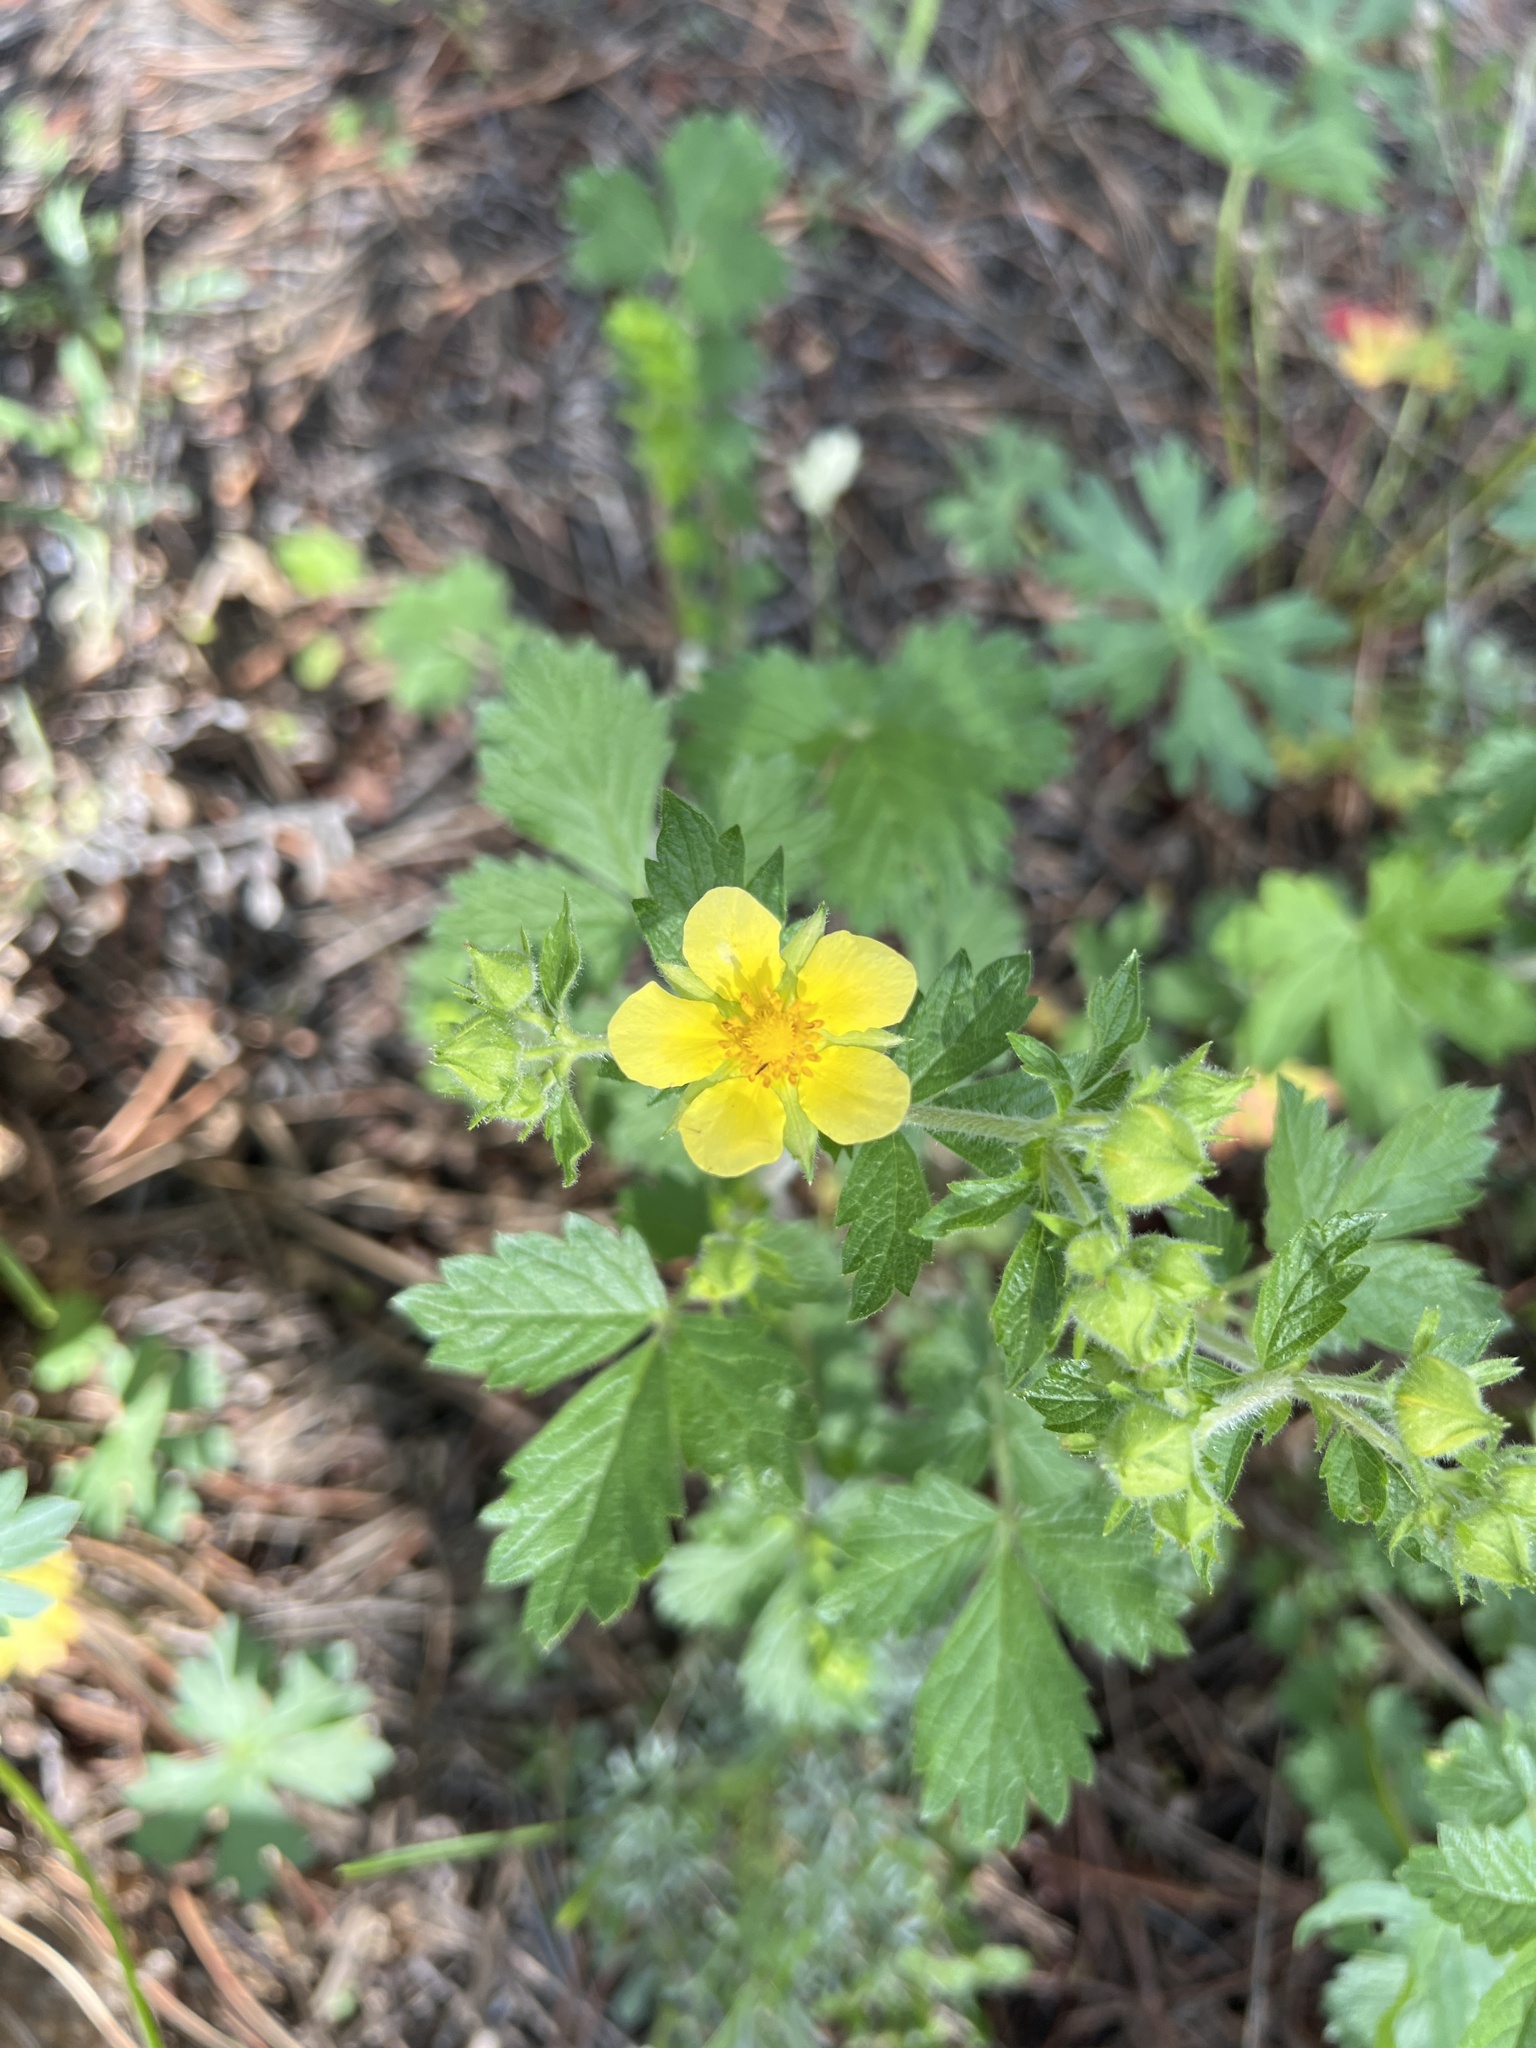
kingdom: Plantae
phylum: Tracheophyta
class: Magnoliopsida
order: Rosales
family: Rosaceae
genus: Drymocallis
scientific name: Drymocallis fissa
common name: Big-flowered cinquefoil
